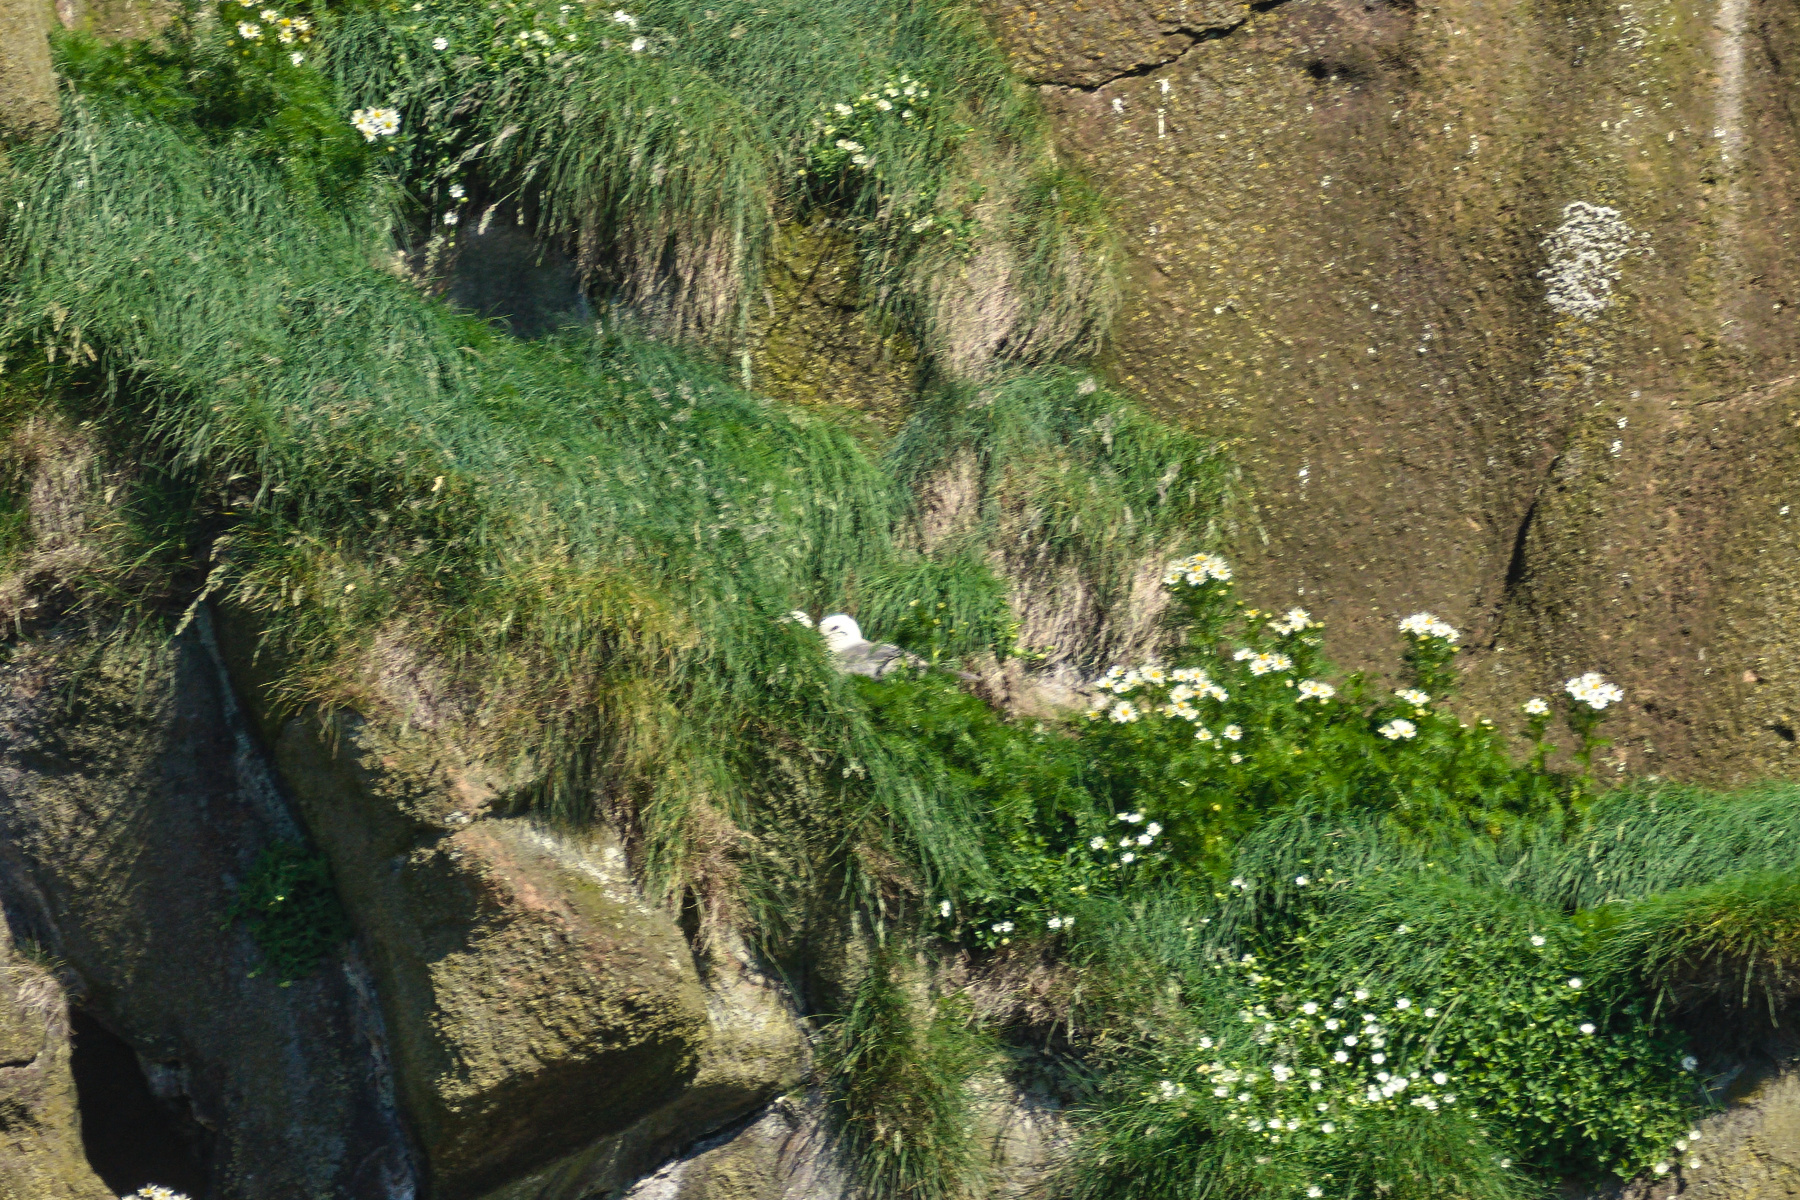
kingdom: Animalia
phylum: Chordata
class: Aves
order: Procellariiformes
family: Procellariidae
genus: Fulmarus
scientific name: Fulmarus glacialis
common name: Northern fulmar
